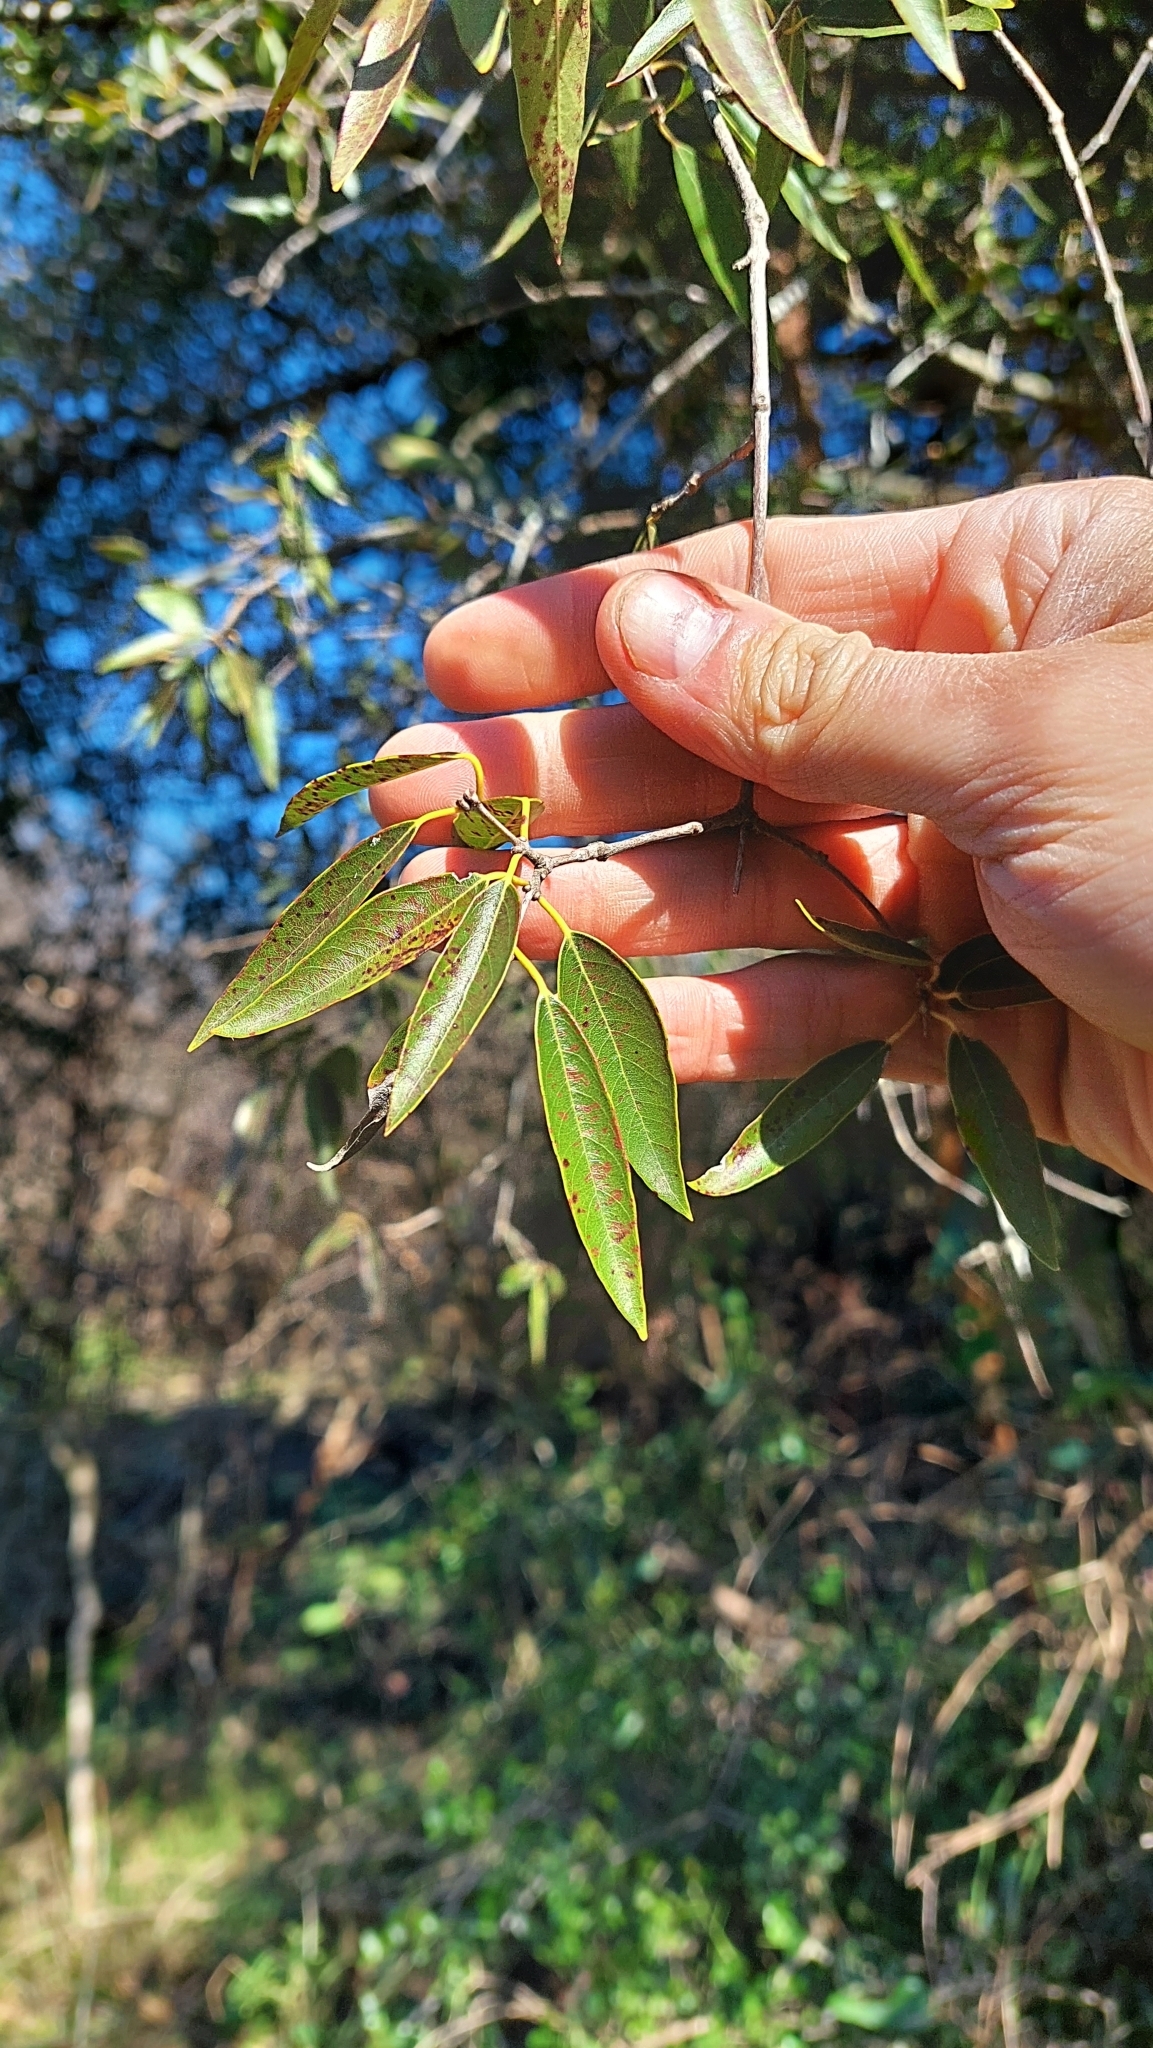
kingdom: Plantae
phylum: Tracheophyta
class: Magnoliopsida
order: Myrtales
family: Myrtaceae
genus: Eugenia
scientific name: Eugenia myrcianthes
